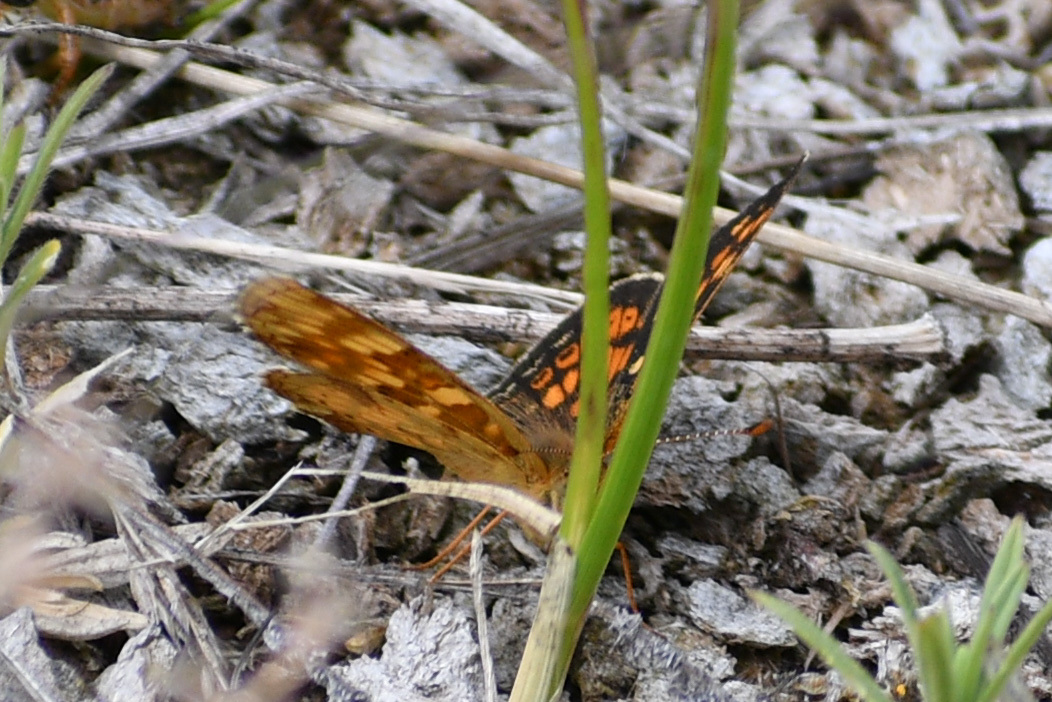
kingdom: Animalia
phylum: Arthropoda
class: Insecta
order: Lepidoptera
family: Nymphalidae
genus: Phyciodes
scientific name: Phyciodes tharos
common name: Pearl crescent
